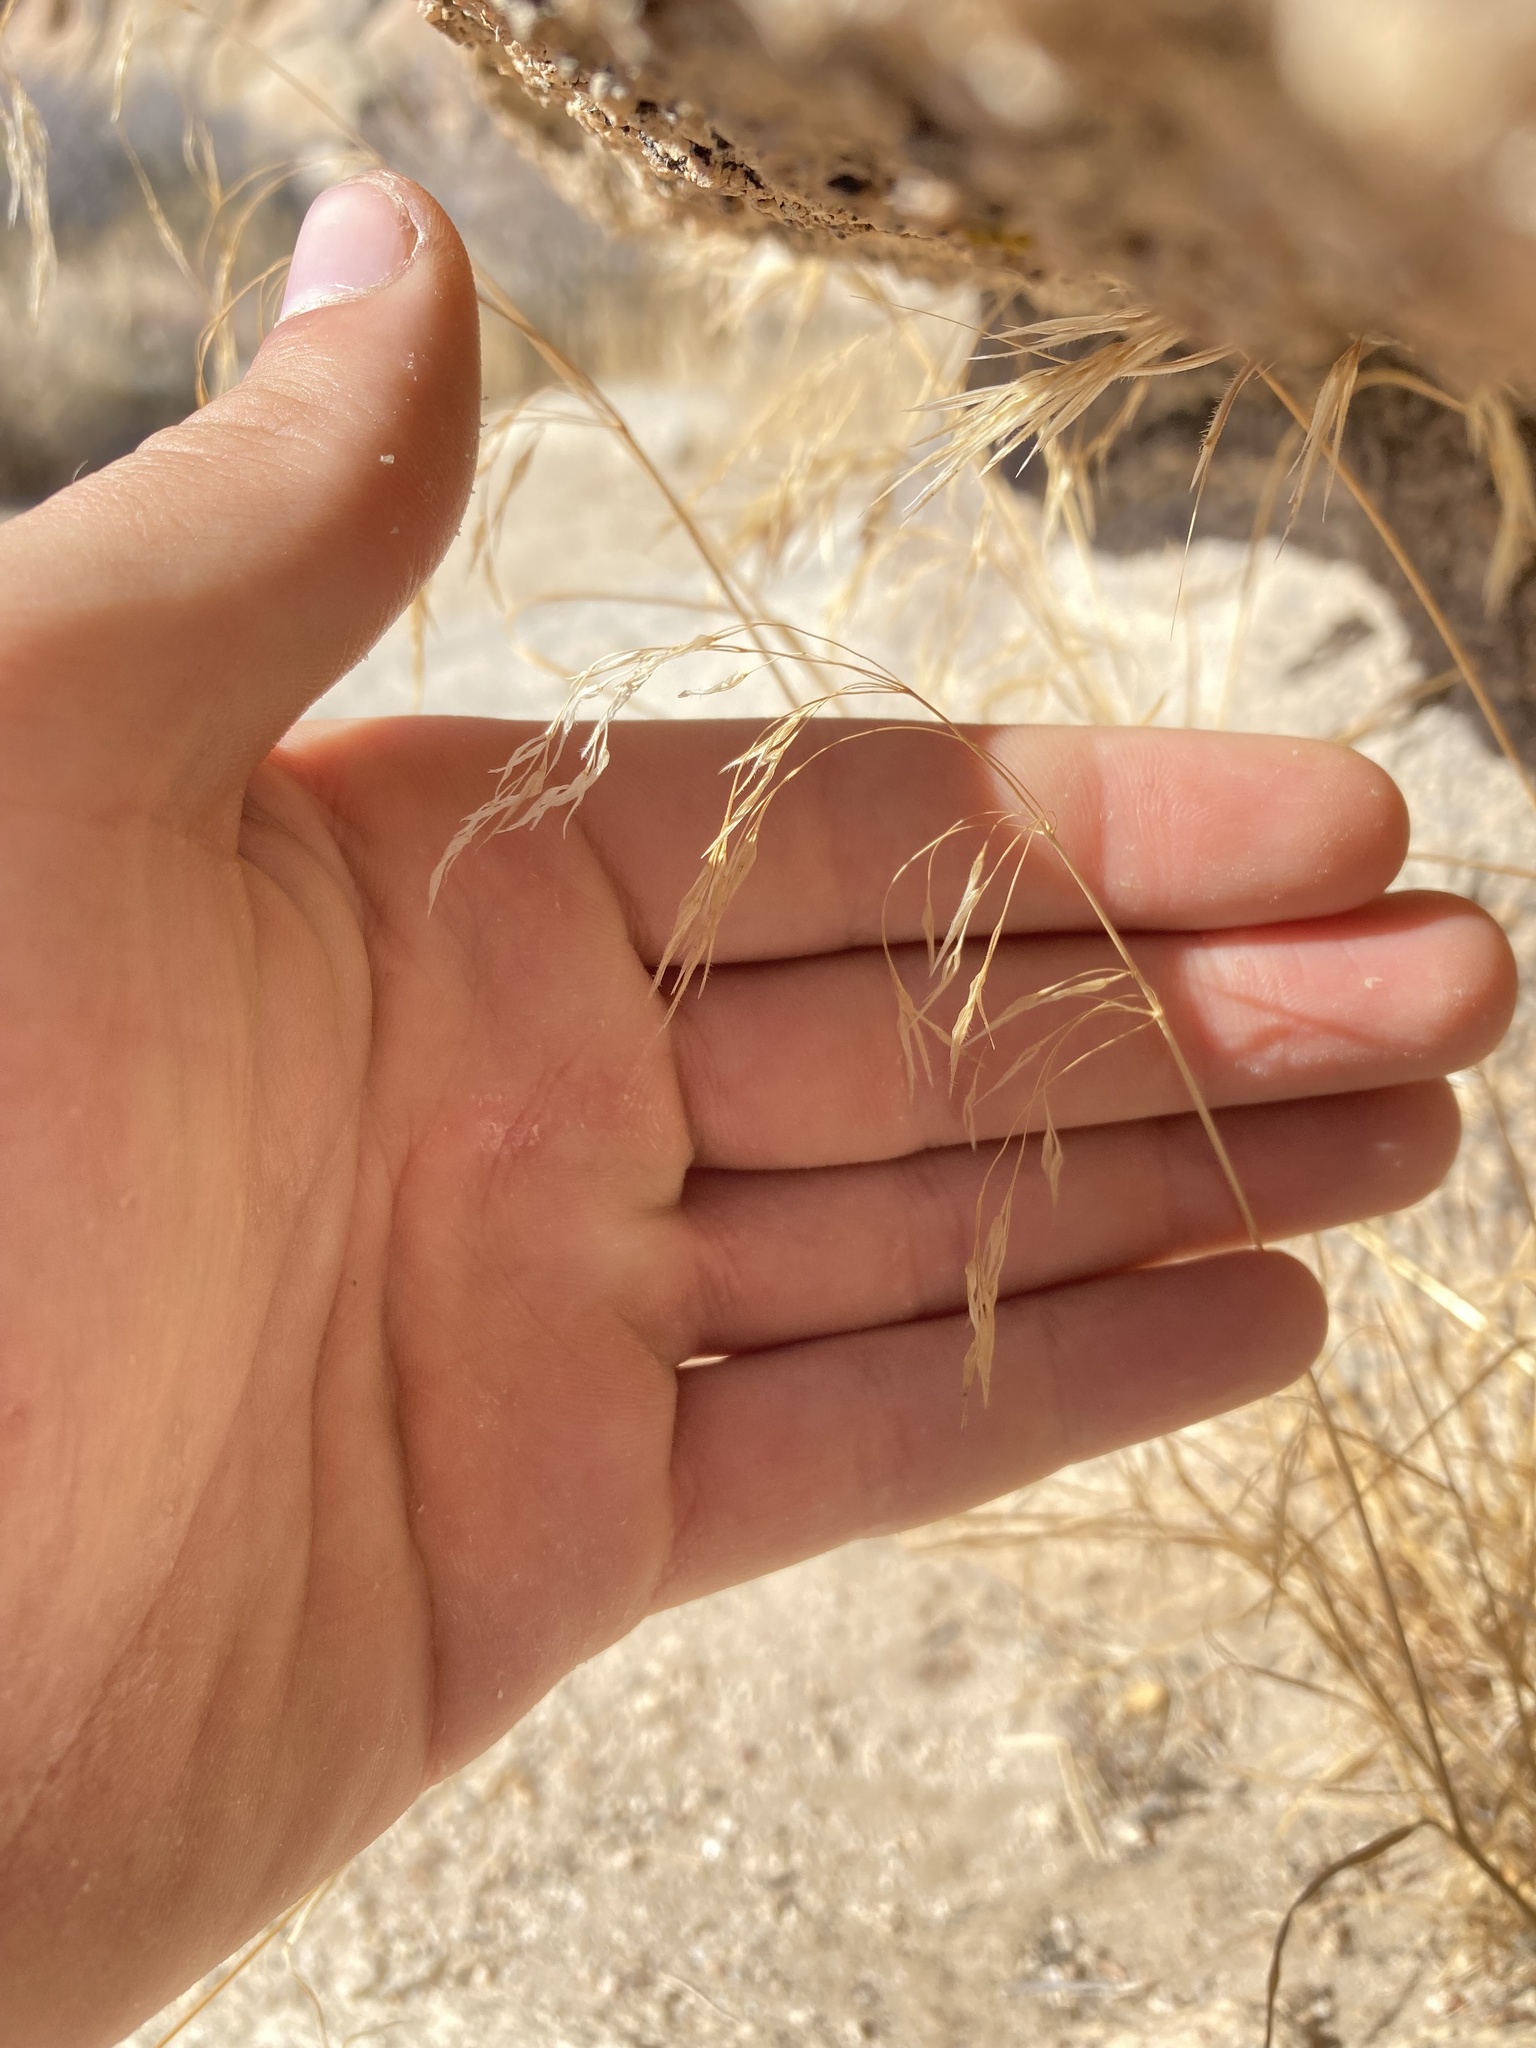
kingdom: Plantae
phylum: Tracheophyta
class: Liliopsida
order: Poales
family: Poaceae
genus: Bromus
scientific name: Bromus tectorum
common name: Cheatgrass
